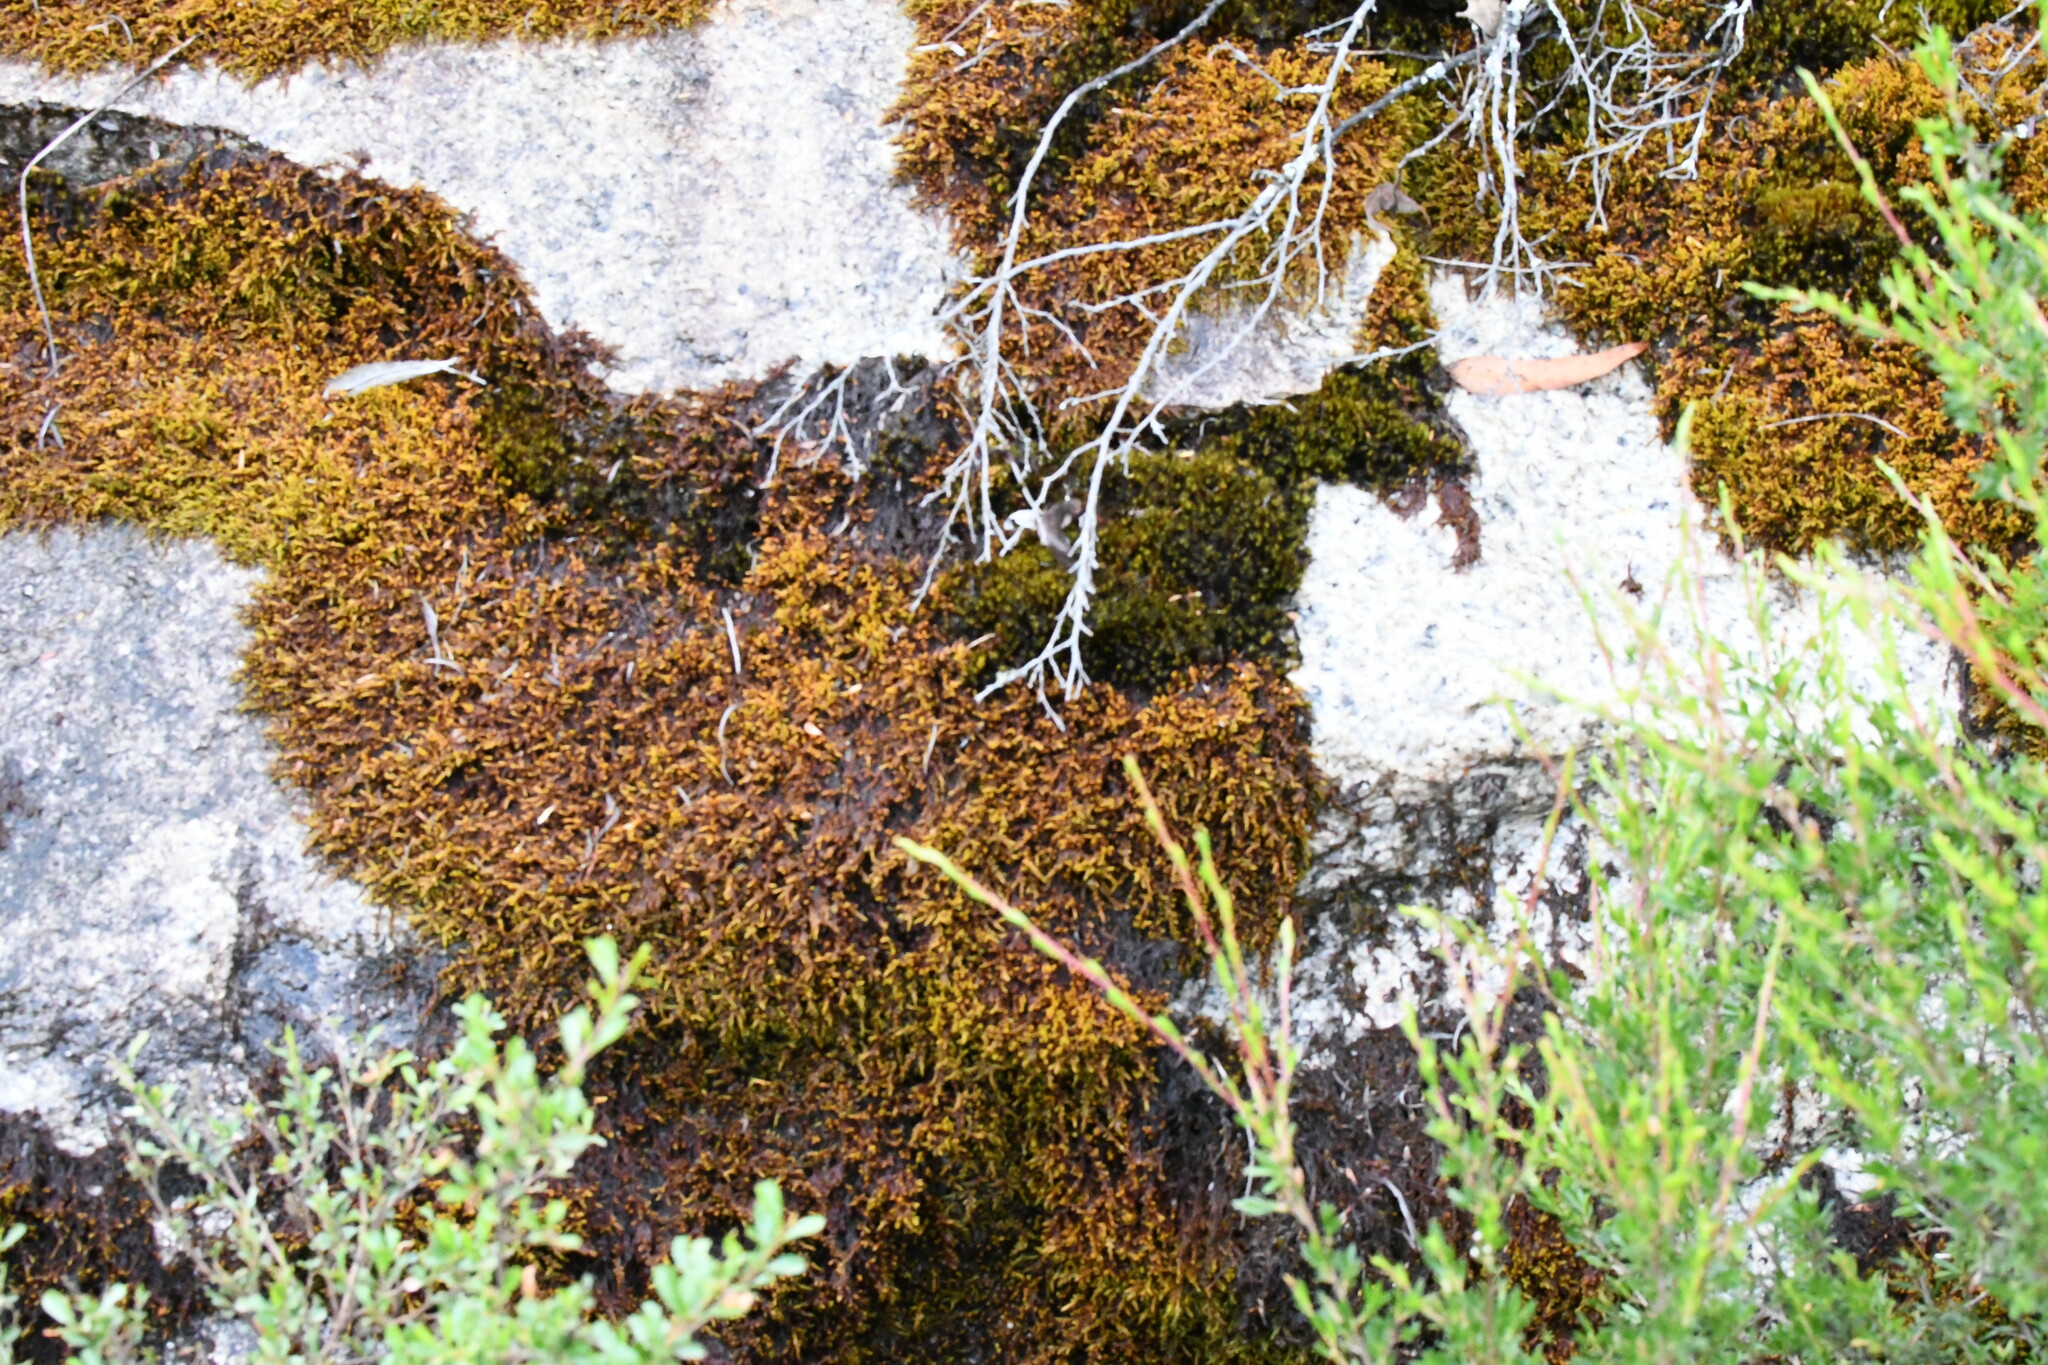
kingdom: Plantae
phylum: Bryophyta
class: Bryopsida
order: Hedwigiales
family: Hedwigiaceae
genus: Rhacocarpus
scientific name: Rhacocarpus purpurascens
